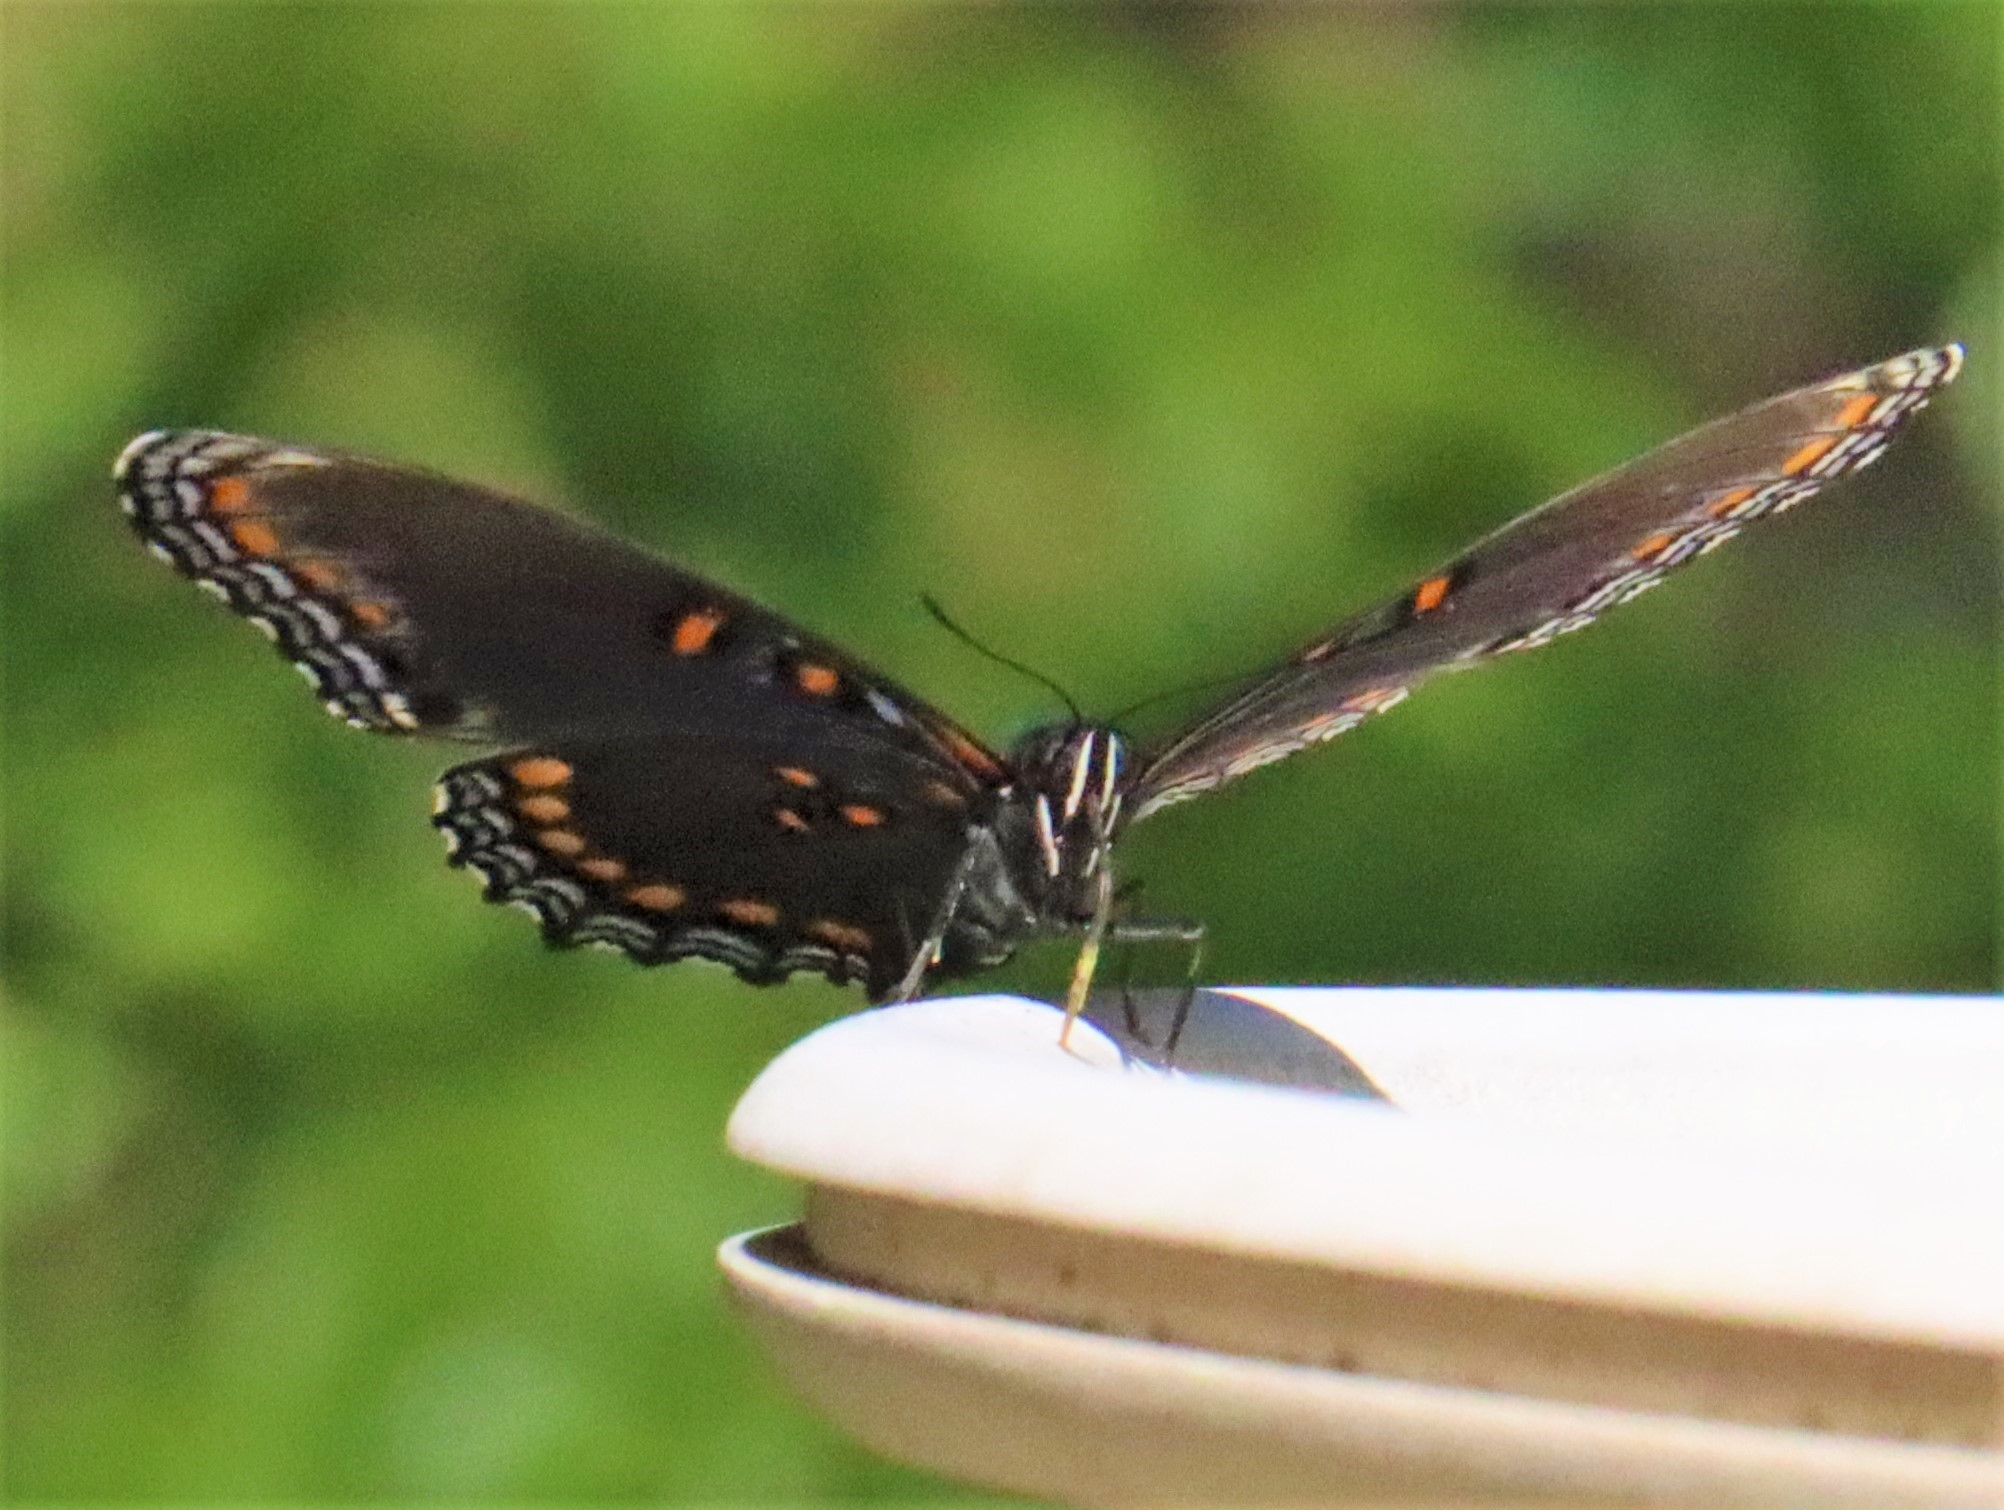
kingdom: Animalia
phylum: Arthropoda
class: Insecta
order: Lepidoptera
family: Nymphalidae
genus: Limenitis
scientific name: Limenitis astyanax
